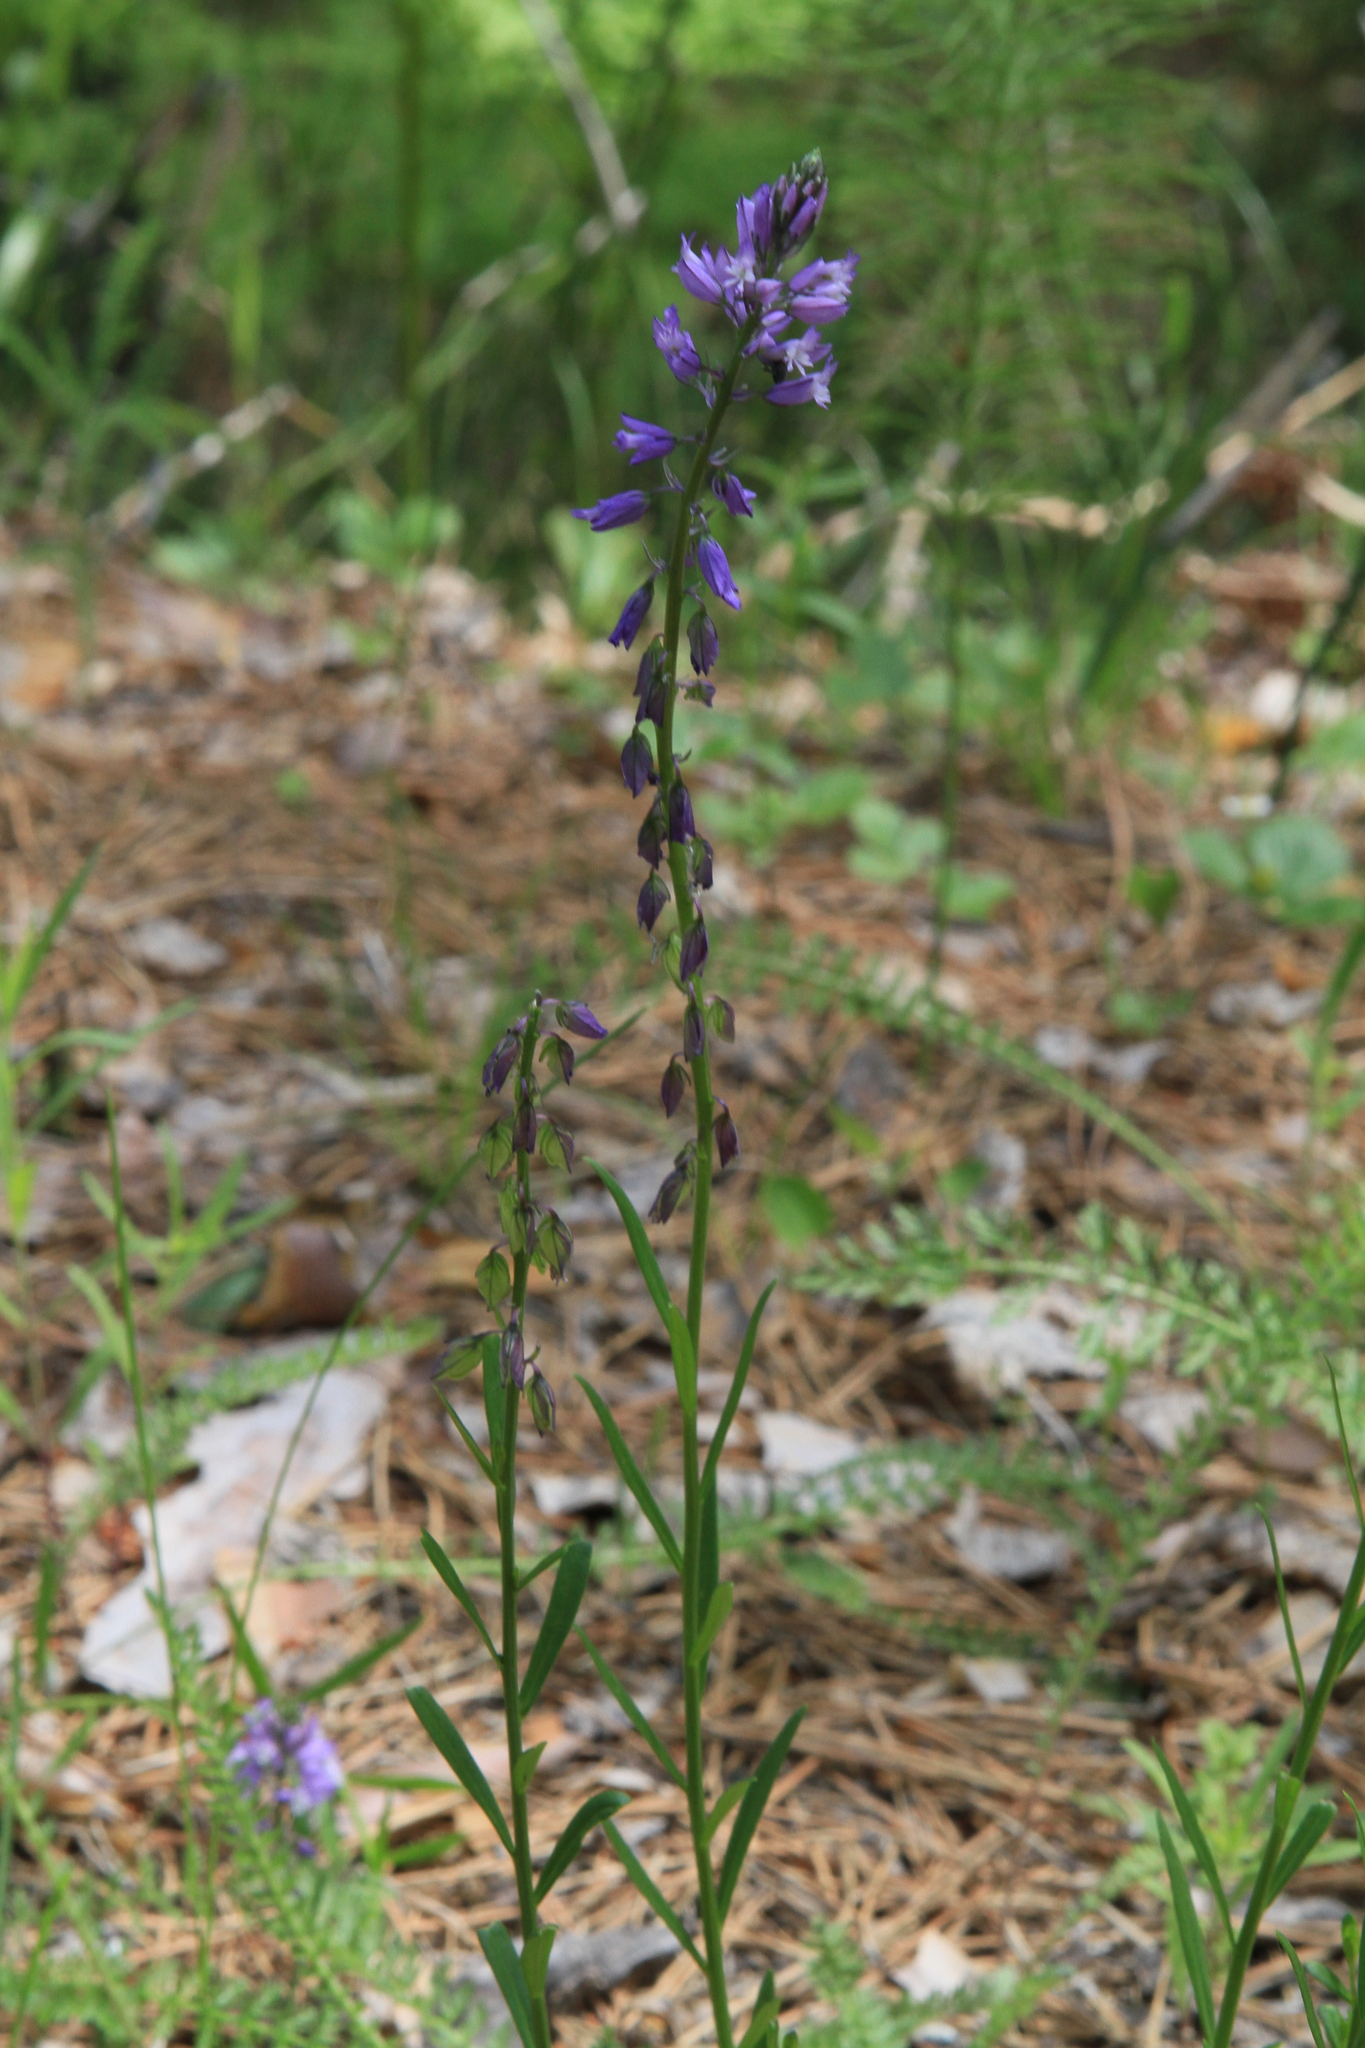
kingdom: Plantae
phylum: Tracheophyta
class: Magnoliopsida
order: Fabales
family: Polygalaceae
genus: Polygala
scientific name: Polygala comosa
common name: Tufted milkwort
